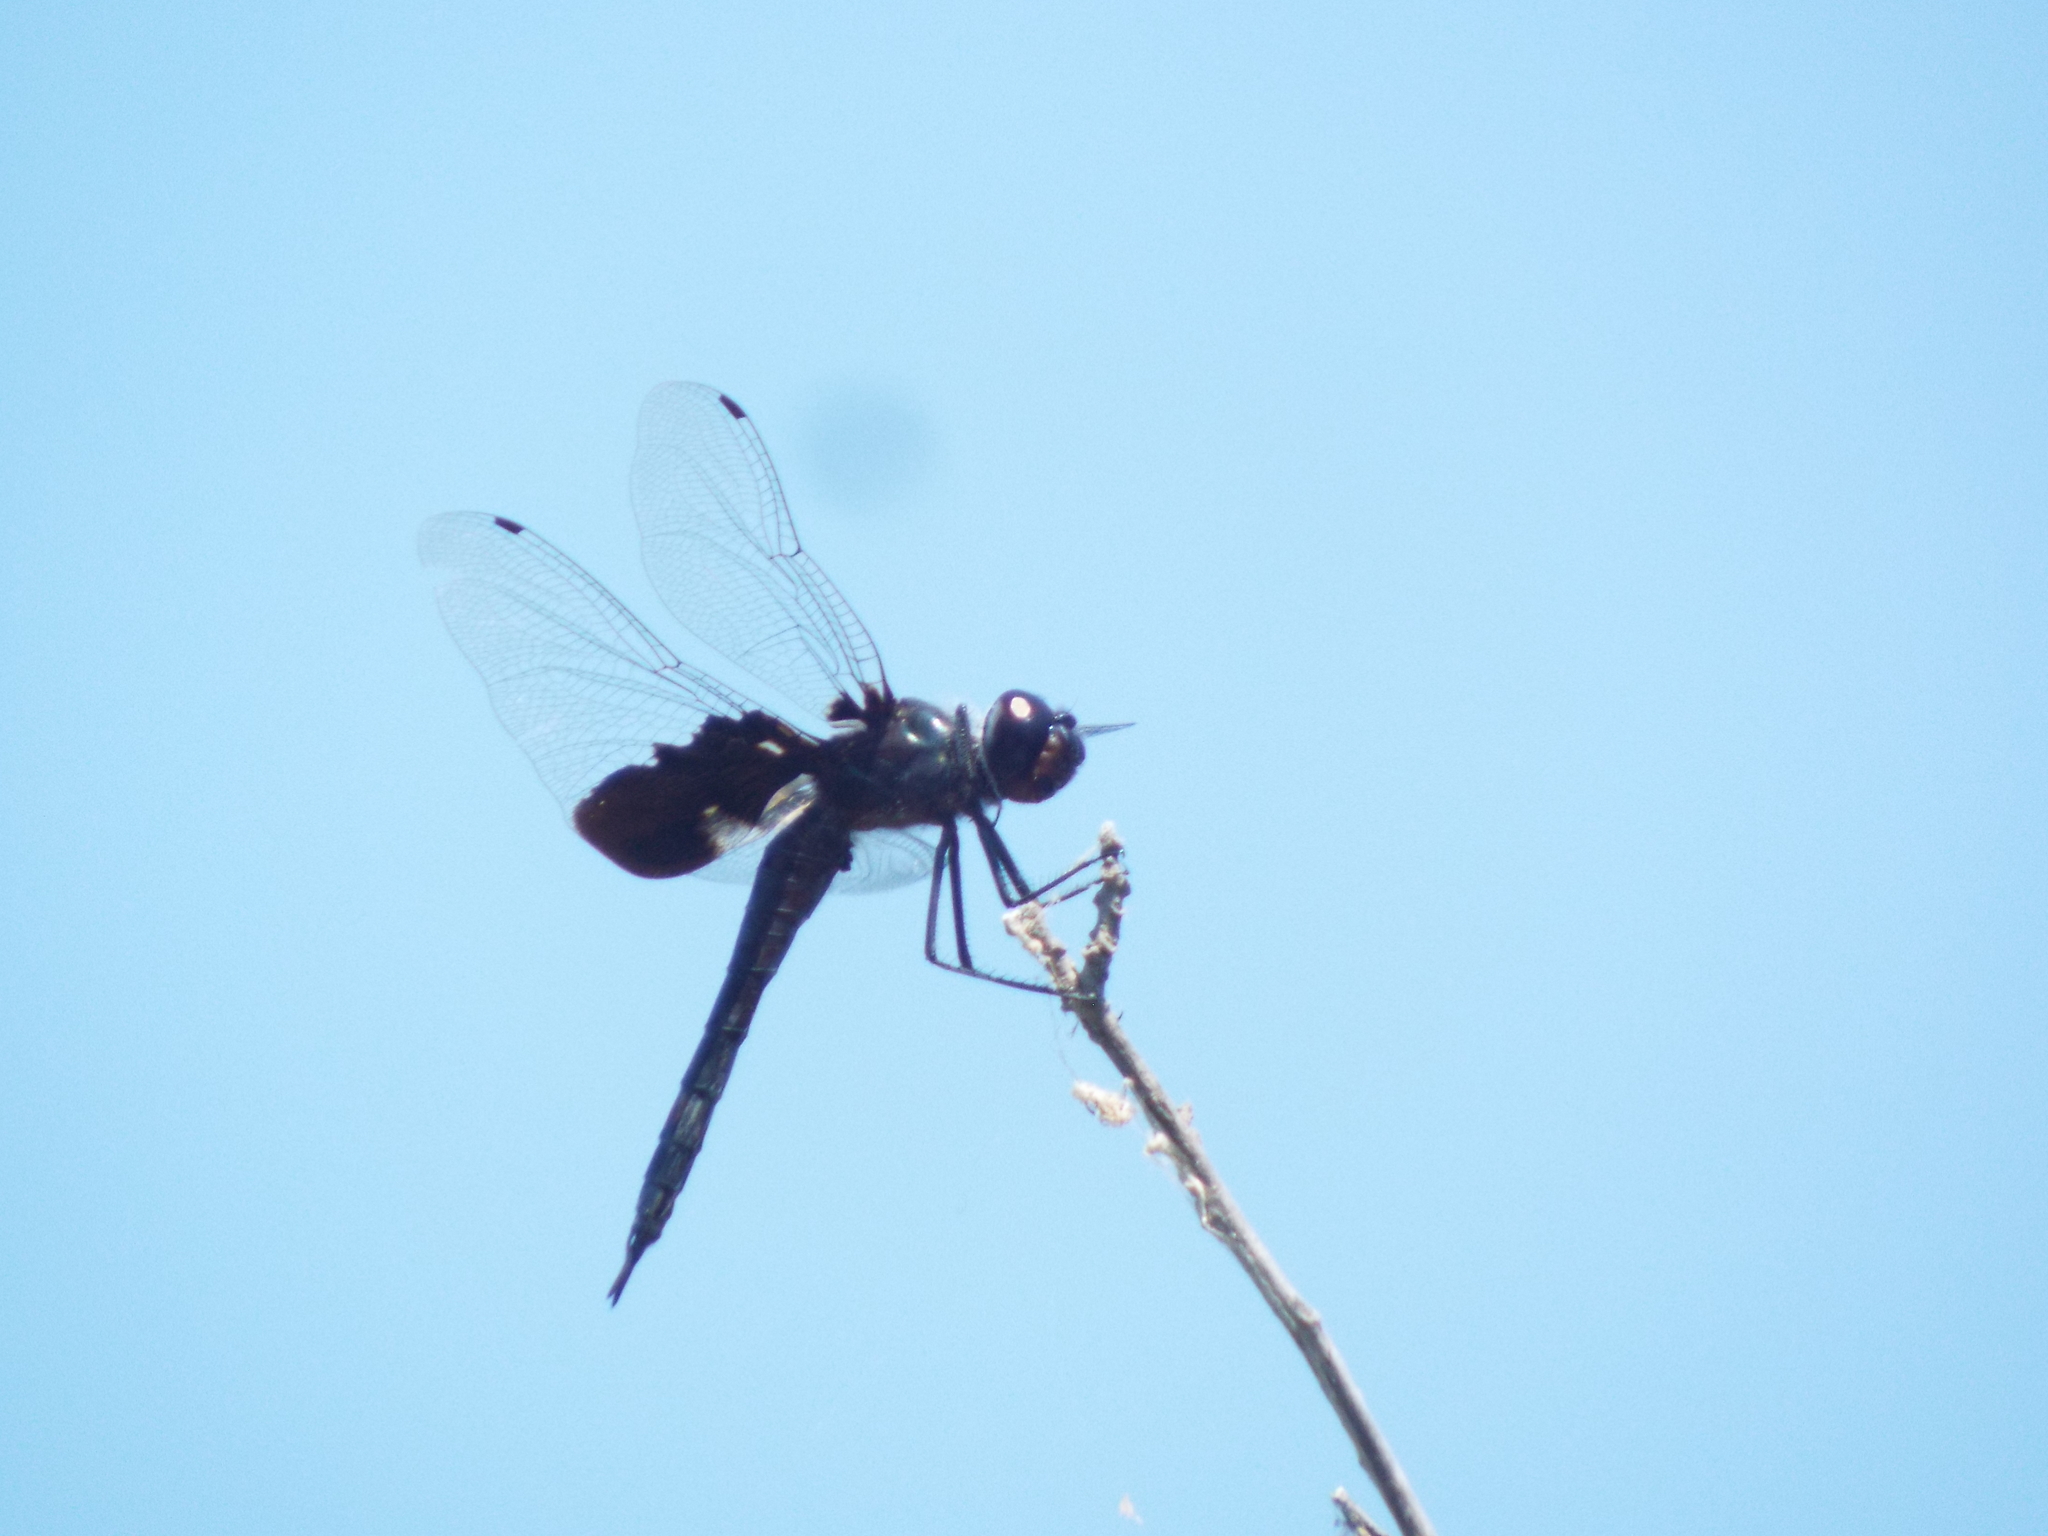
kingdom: Animalia
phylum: Arthropoda
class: Insecta
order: Odonata
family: Libellulidae
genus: Tramea
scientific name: Tramea lacerata
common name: Black saddlebags
